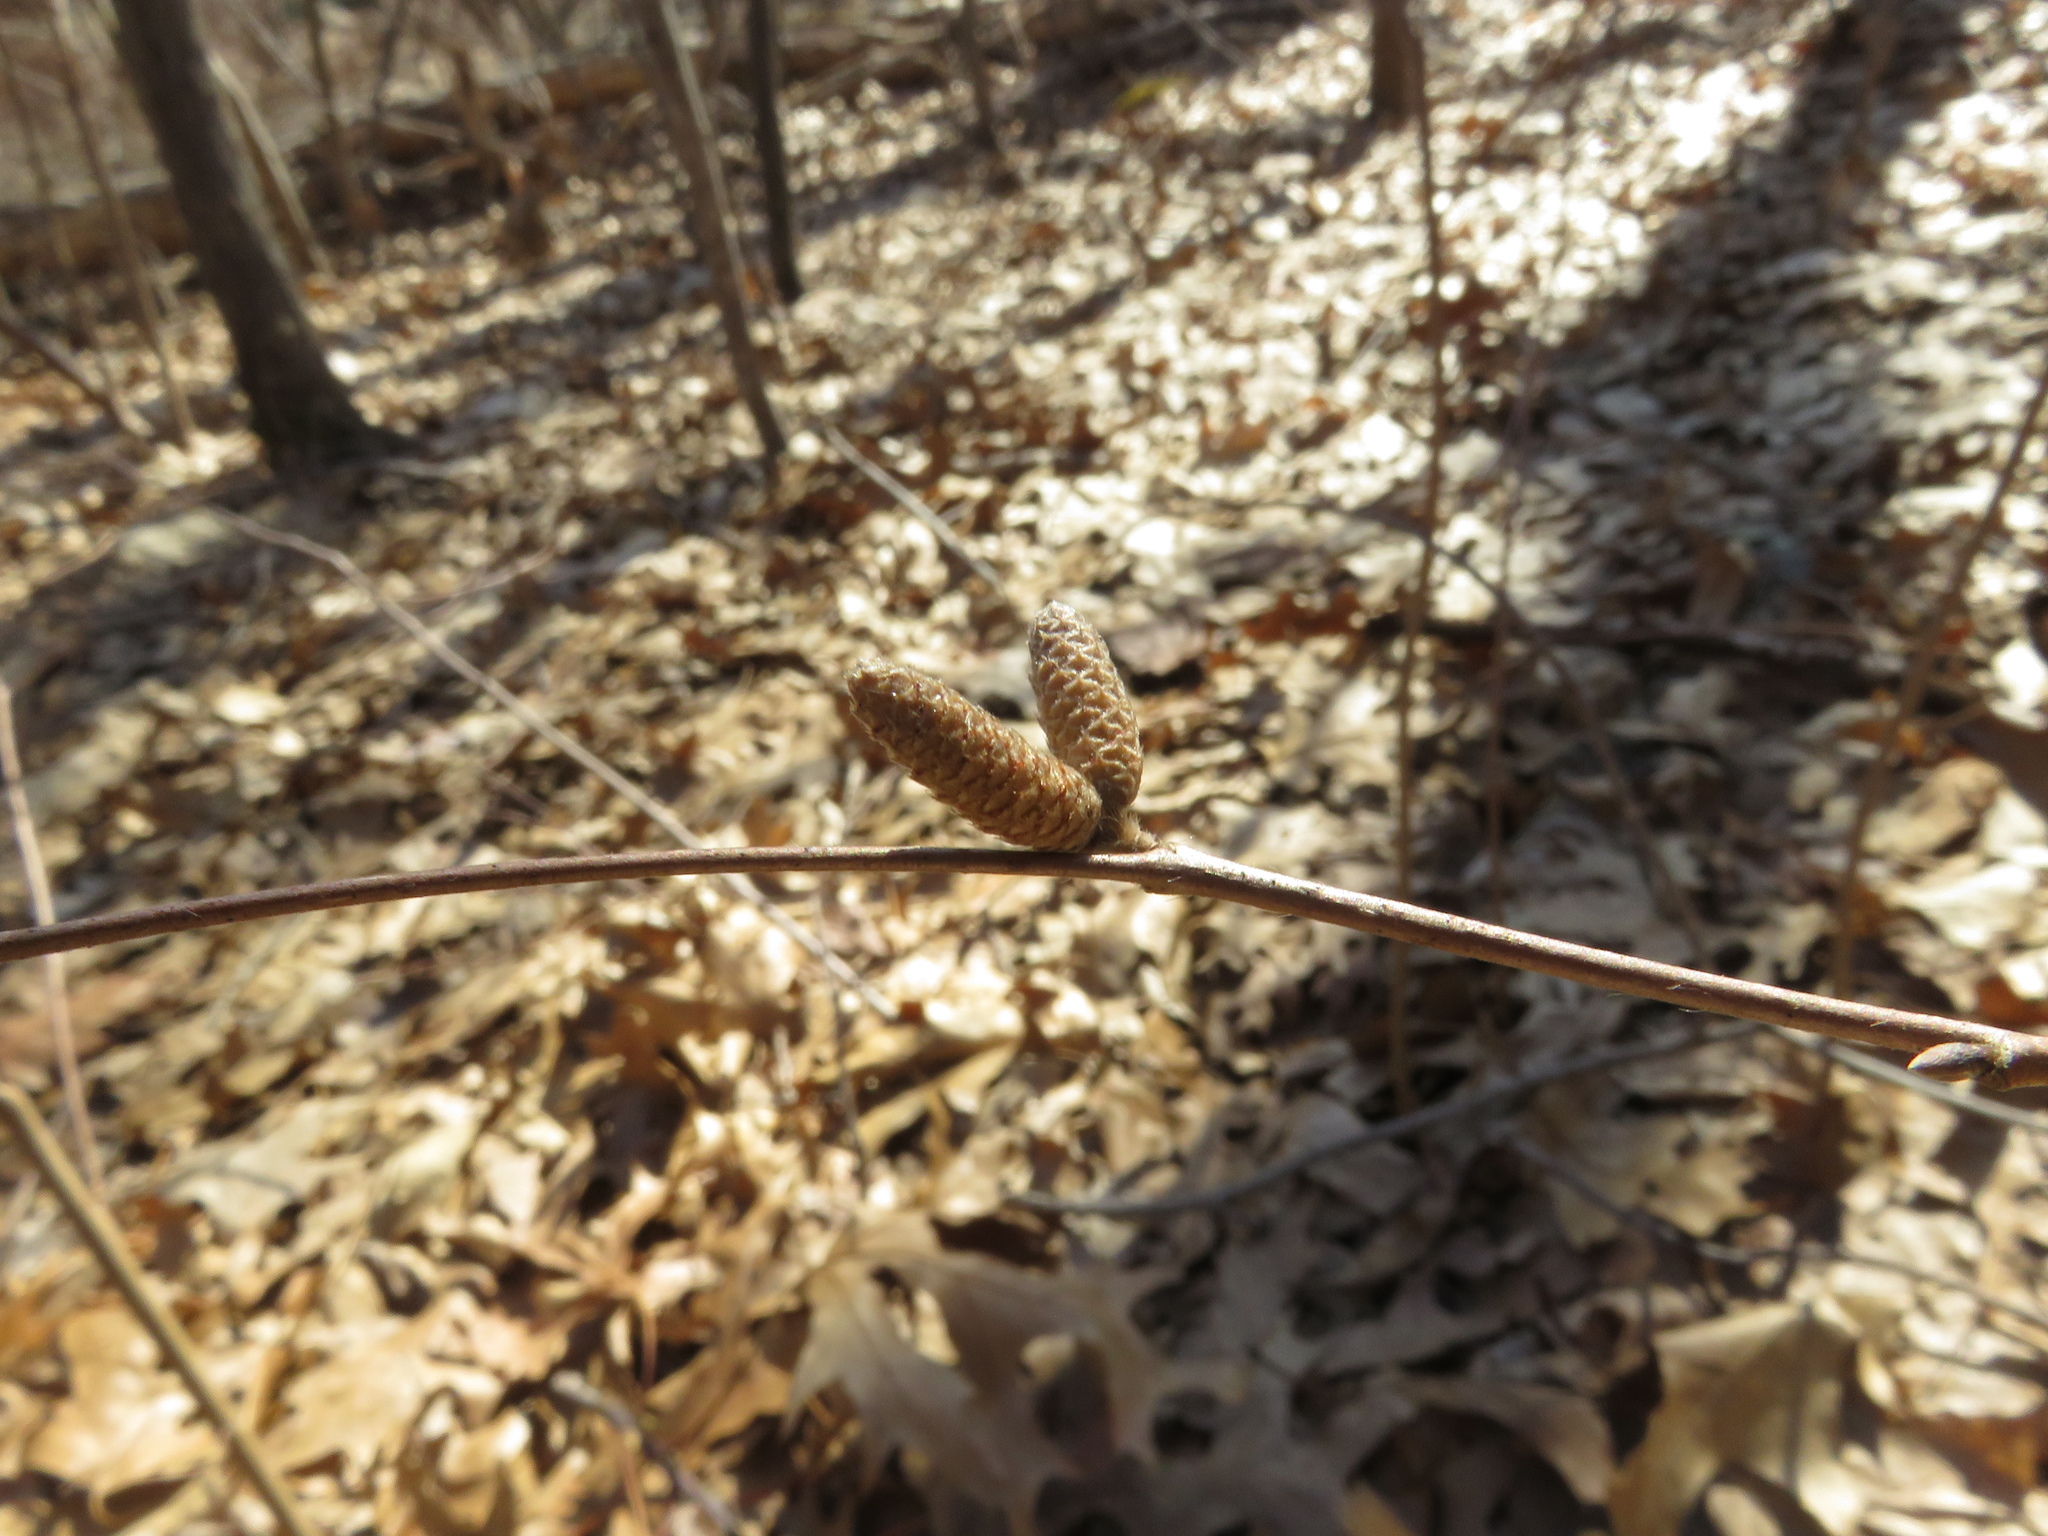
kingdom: Plantae
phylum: Tracheophyta
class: Magnoliopsida
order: Fagales
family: Betulaceae
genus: Corylus
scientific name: Corylus cornuta
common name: Beaked hazel
